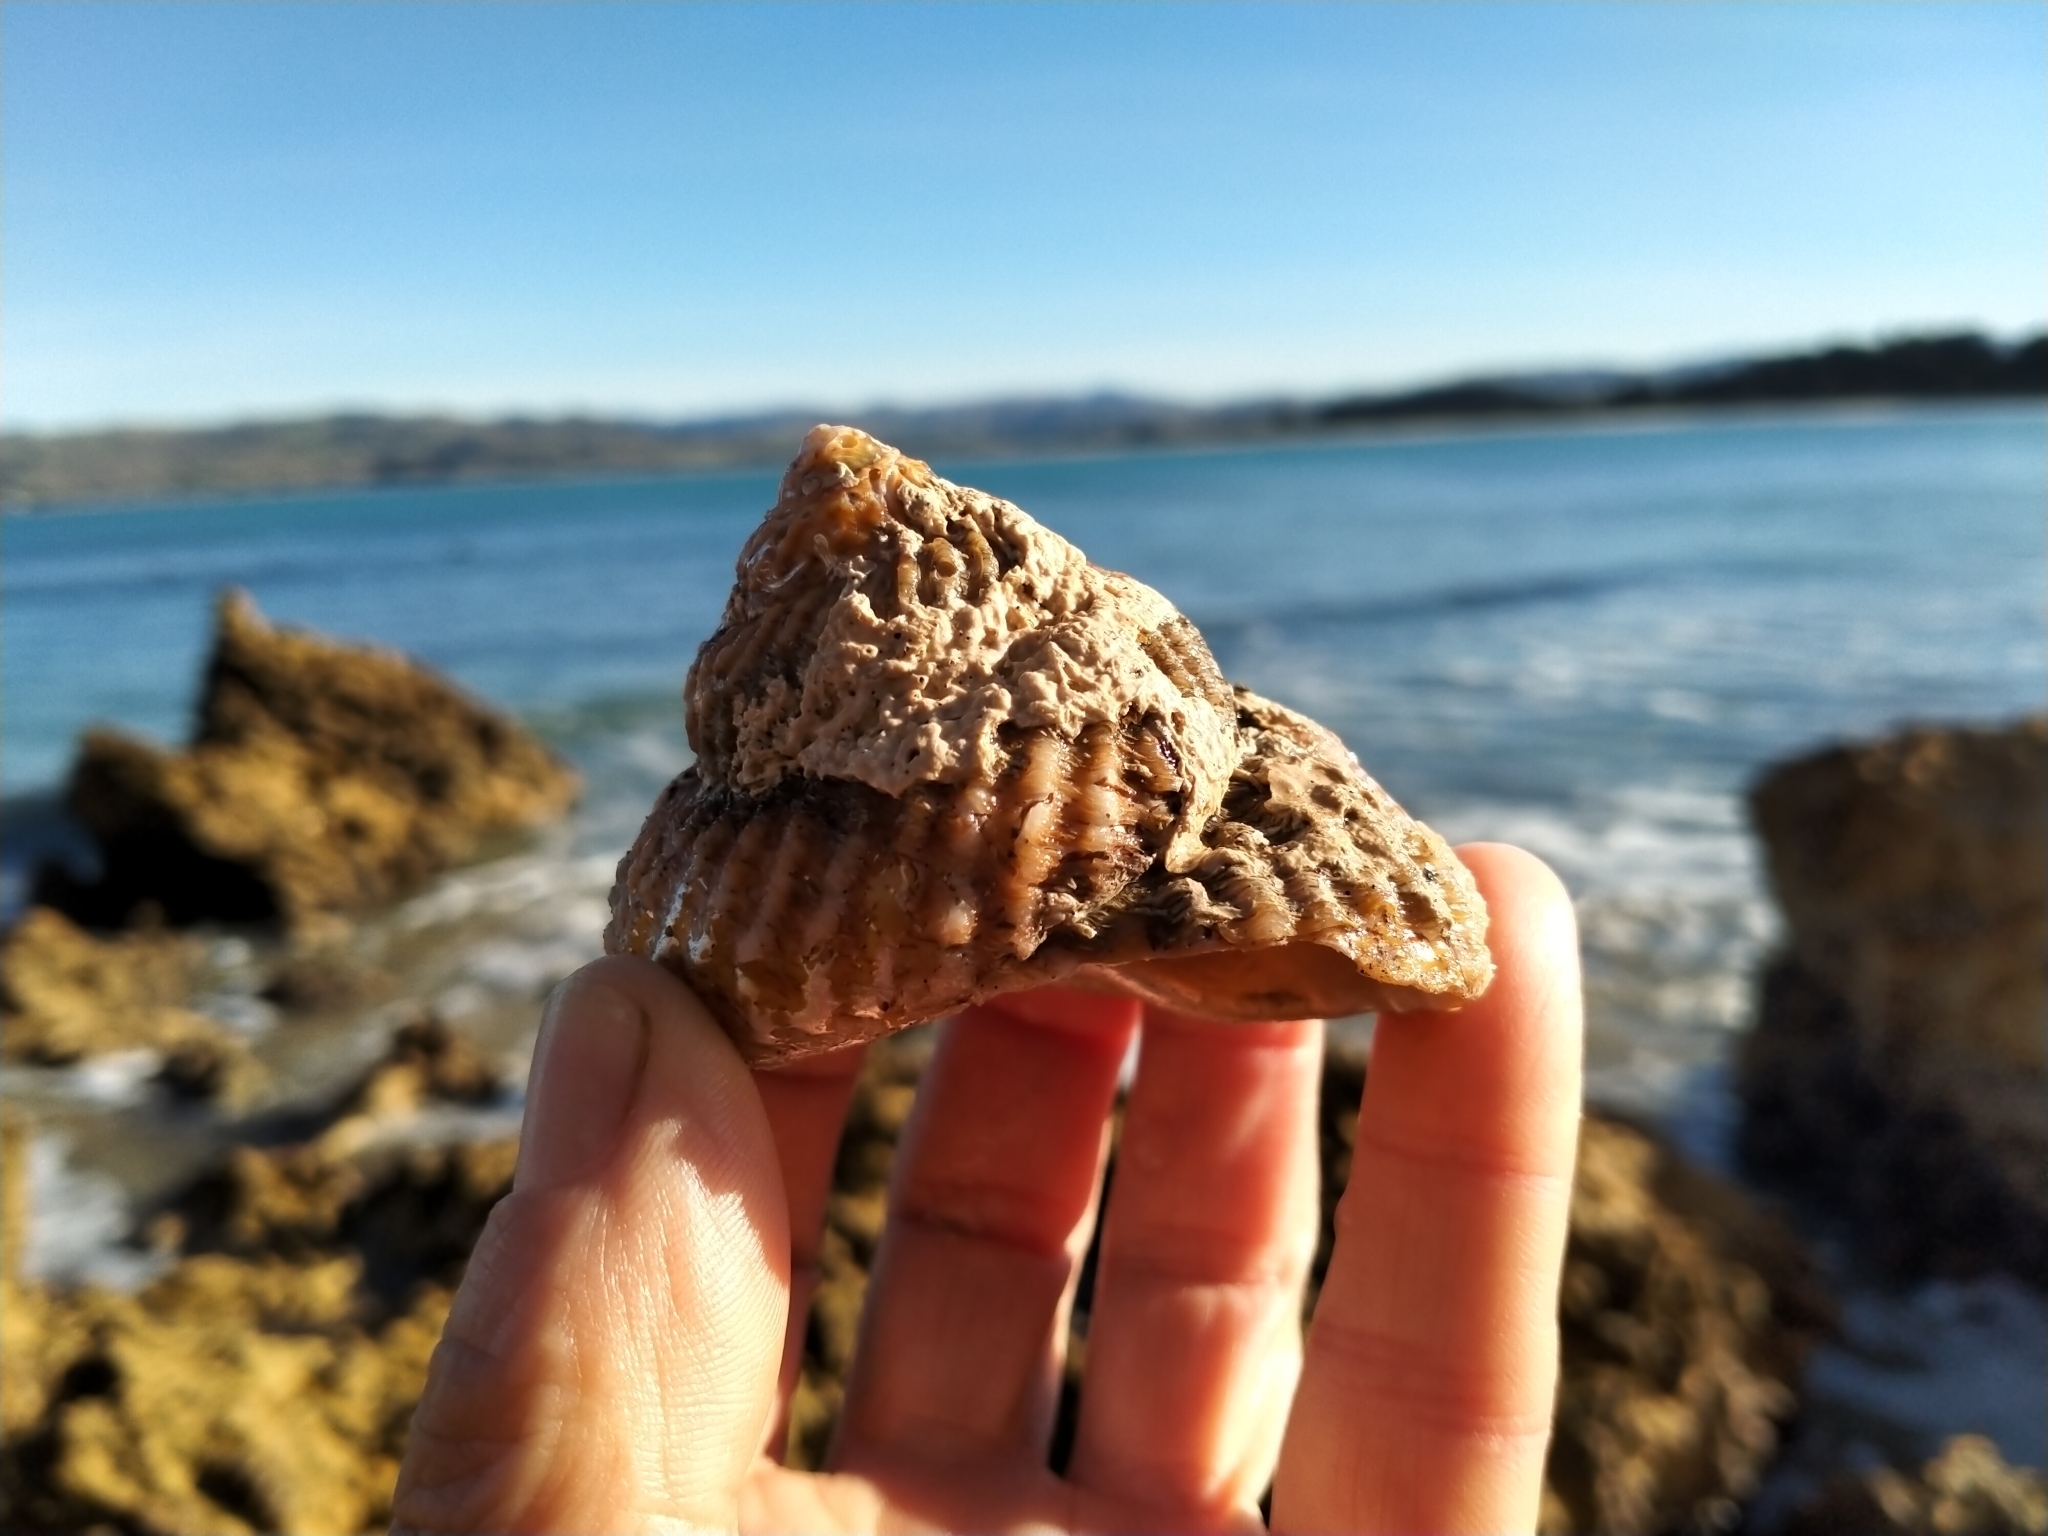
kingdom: Animalia
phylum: Mollusca
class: Gastropoda
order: Trochida
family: Turbinidae
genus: Cookia
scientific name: Cookia sulcata
